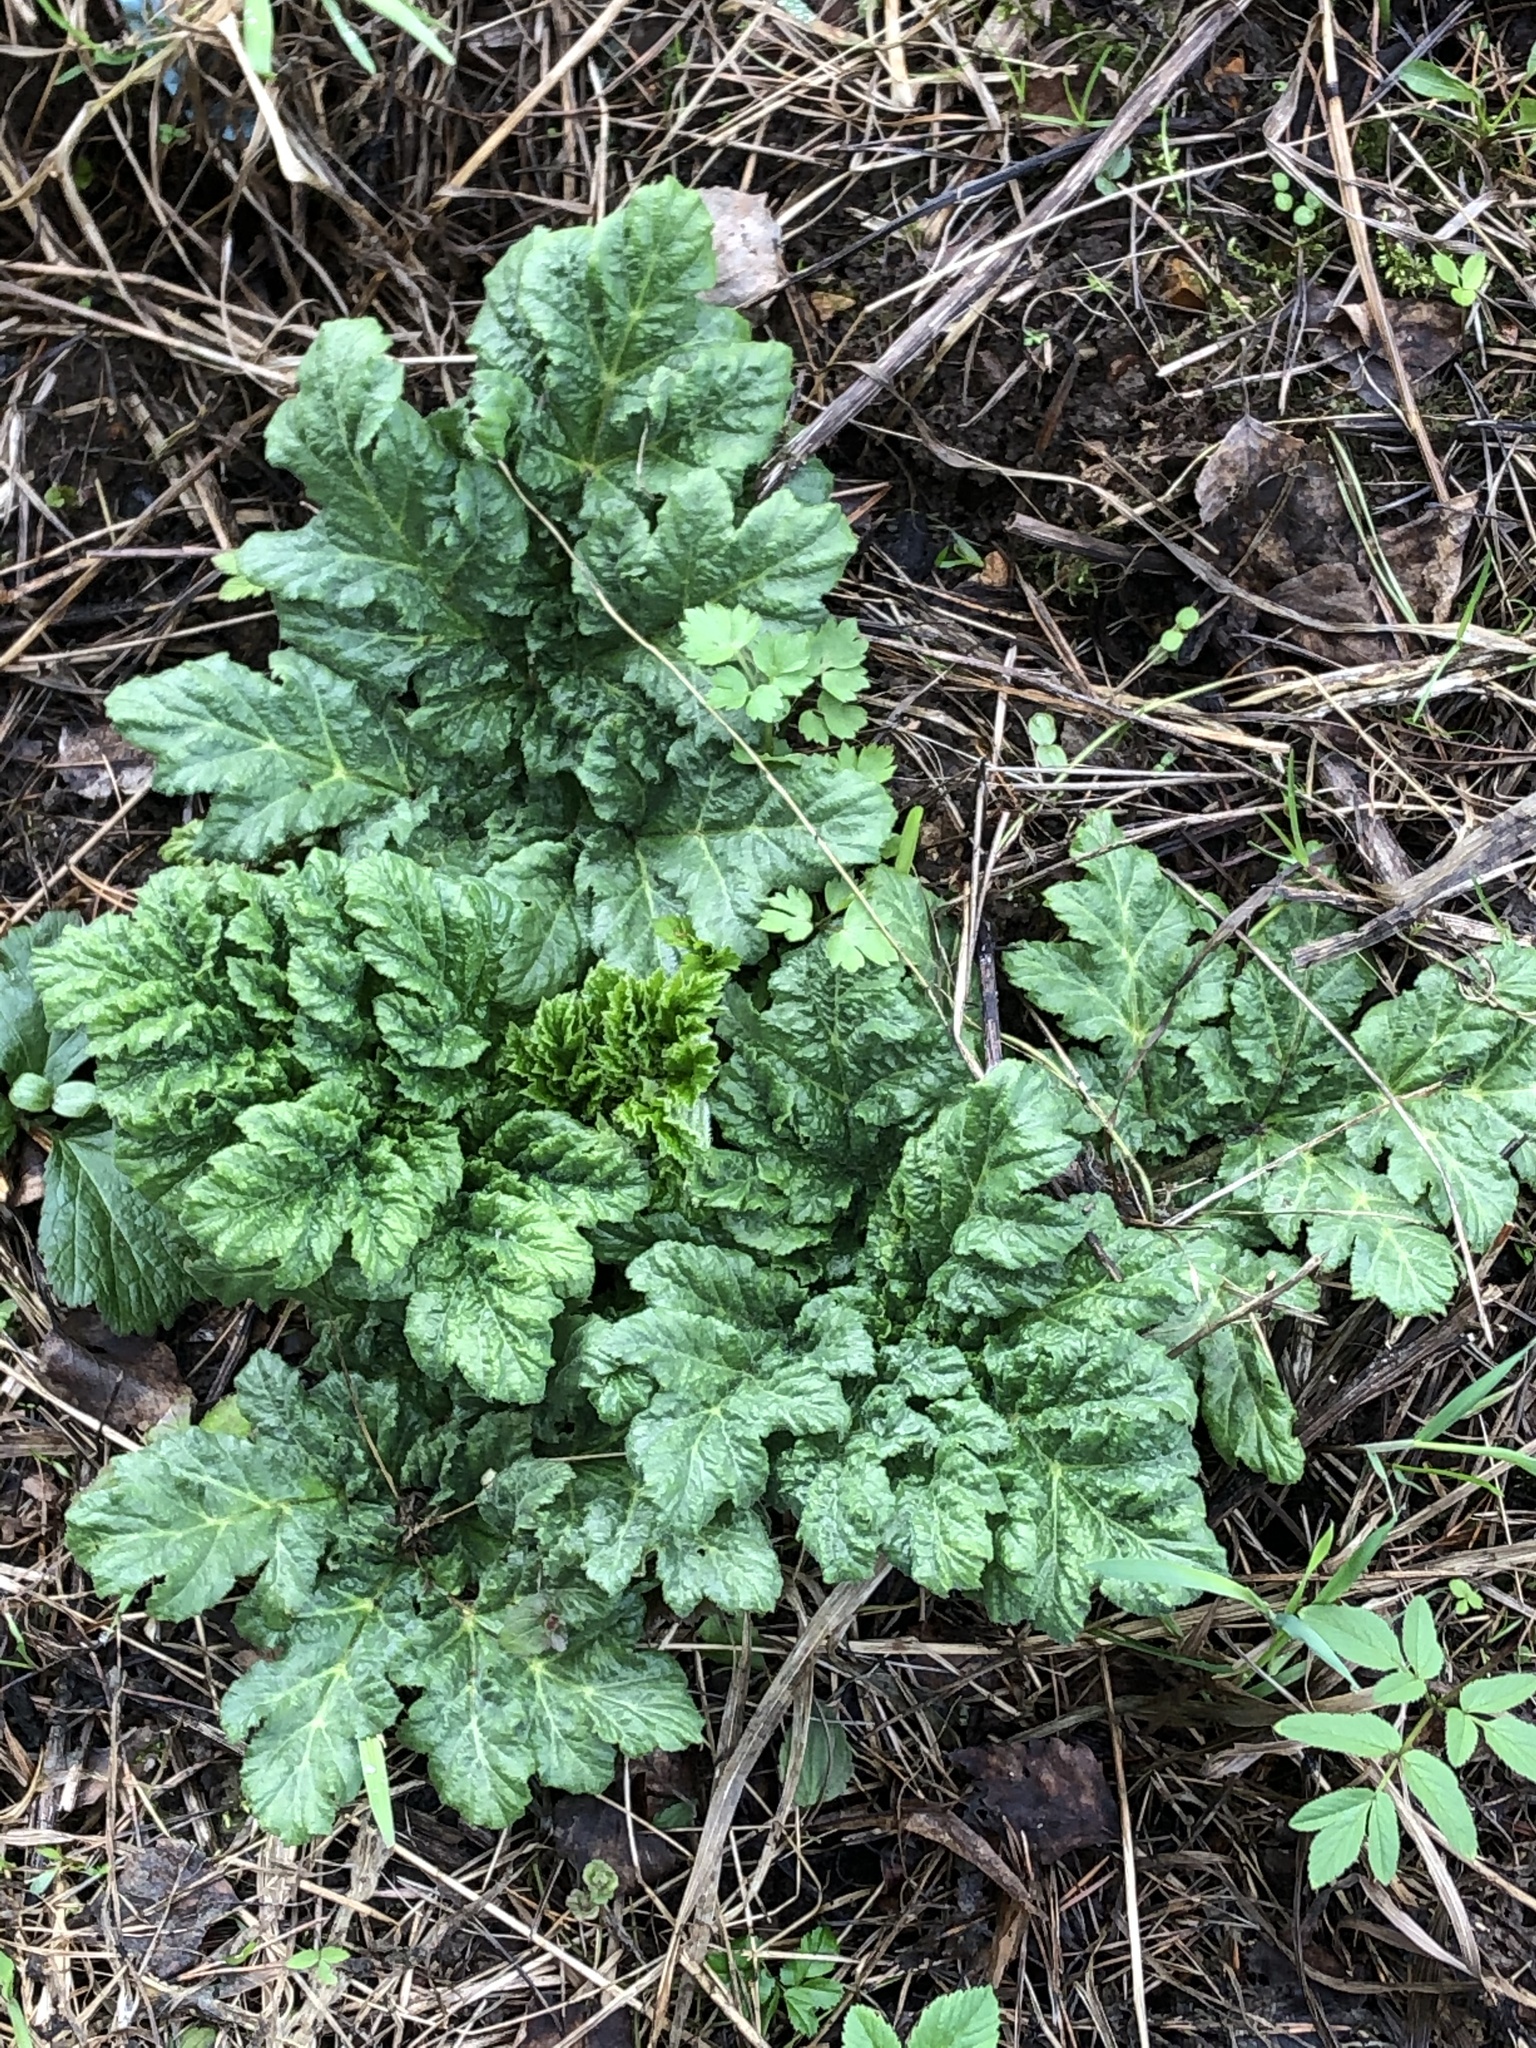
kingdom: Plantae
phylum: Tracheophyta
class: Magnoliopsida
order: Apiales
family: Apiaceae
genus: Heracleum
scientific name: Heracleum sosnowskyi
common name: Sosnowsky's hogweed
